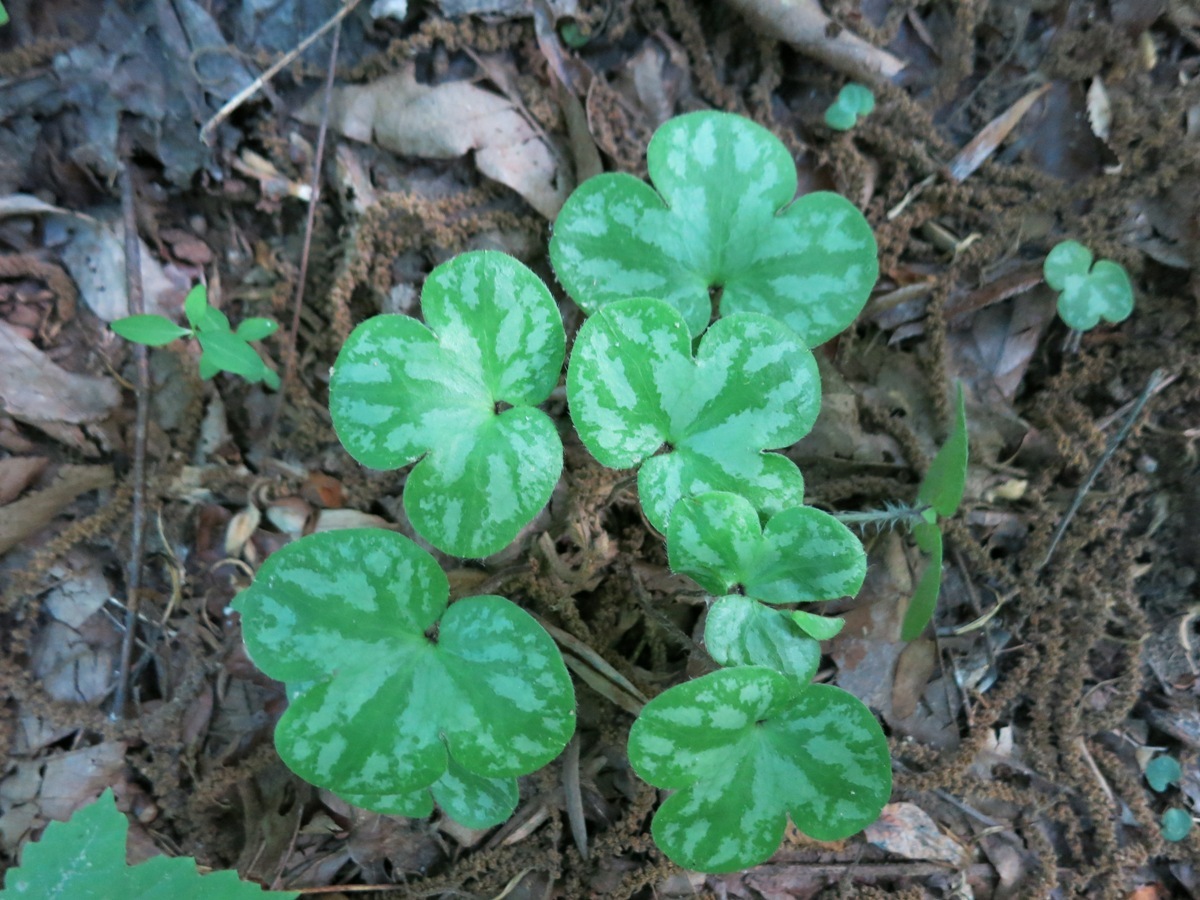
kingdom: Plantae
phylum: Tracheophyta
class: Magnoliopsida
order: Ranunculales
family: Ranunculaceae
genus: Hepatica
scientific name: Hepatica americana
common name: American hepatica
